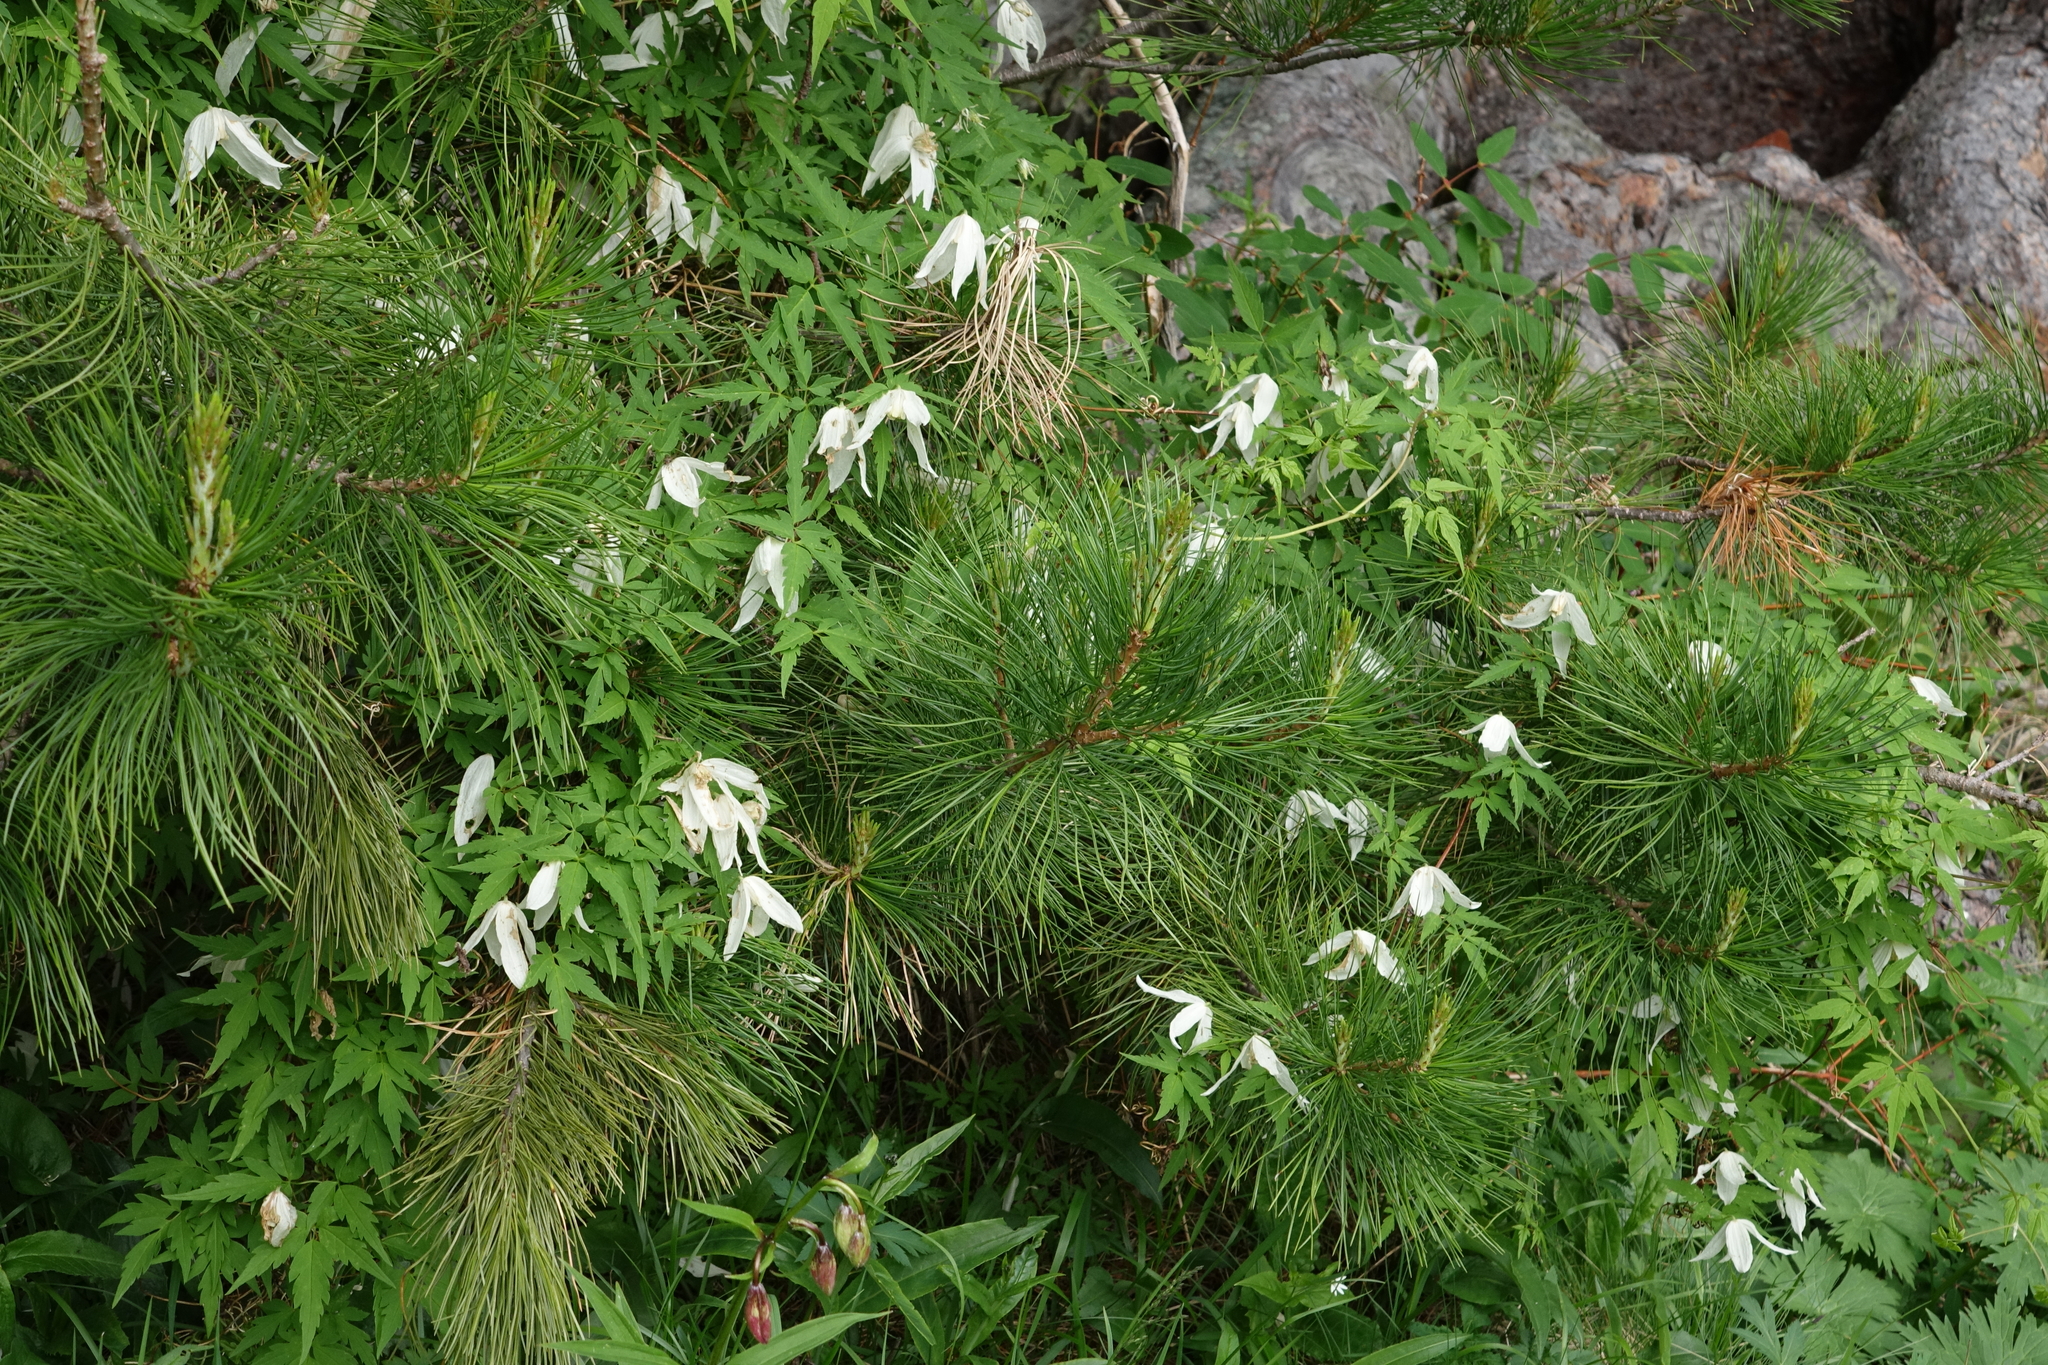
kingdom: Plantae
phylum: Tracheophyta
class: Magnoliopsida
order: Ranunculales
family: Ranunculaceae
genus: Clematis
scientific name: Clematis sibirica
